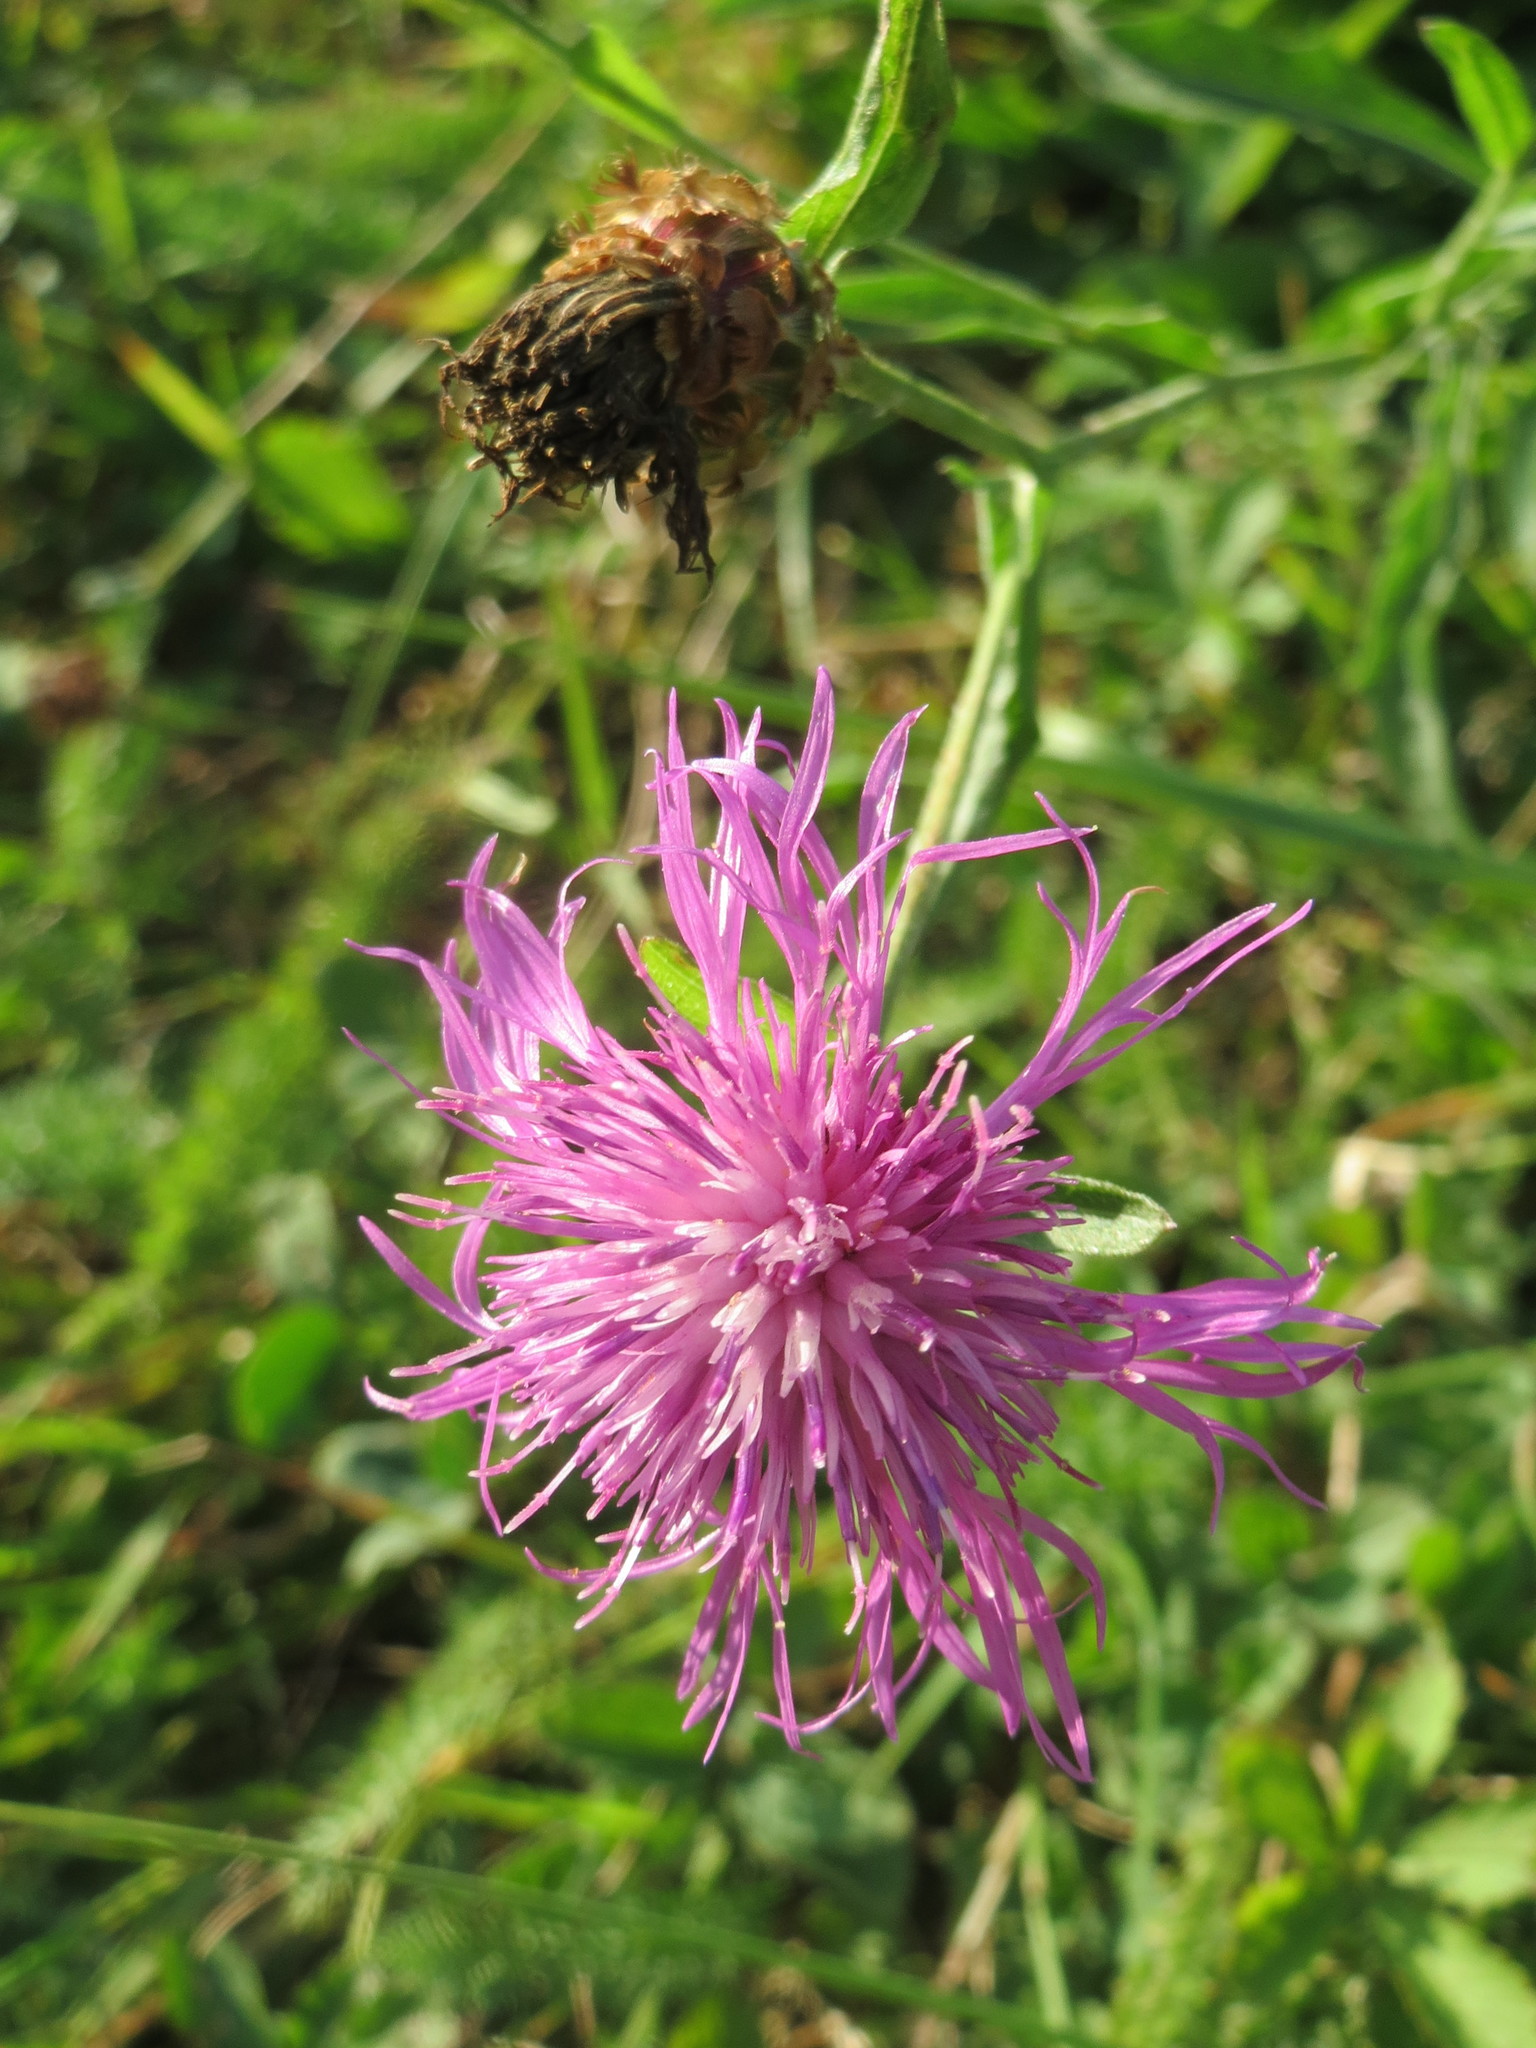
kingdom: Plantae
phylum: Tracheophyta
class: Magnoliopsida
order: Asterales
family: Asteraceae
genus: Centaurea
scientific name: Centaurea jacea
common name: Brown knapweed
